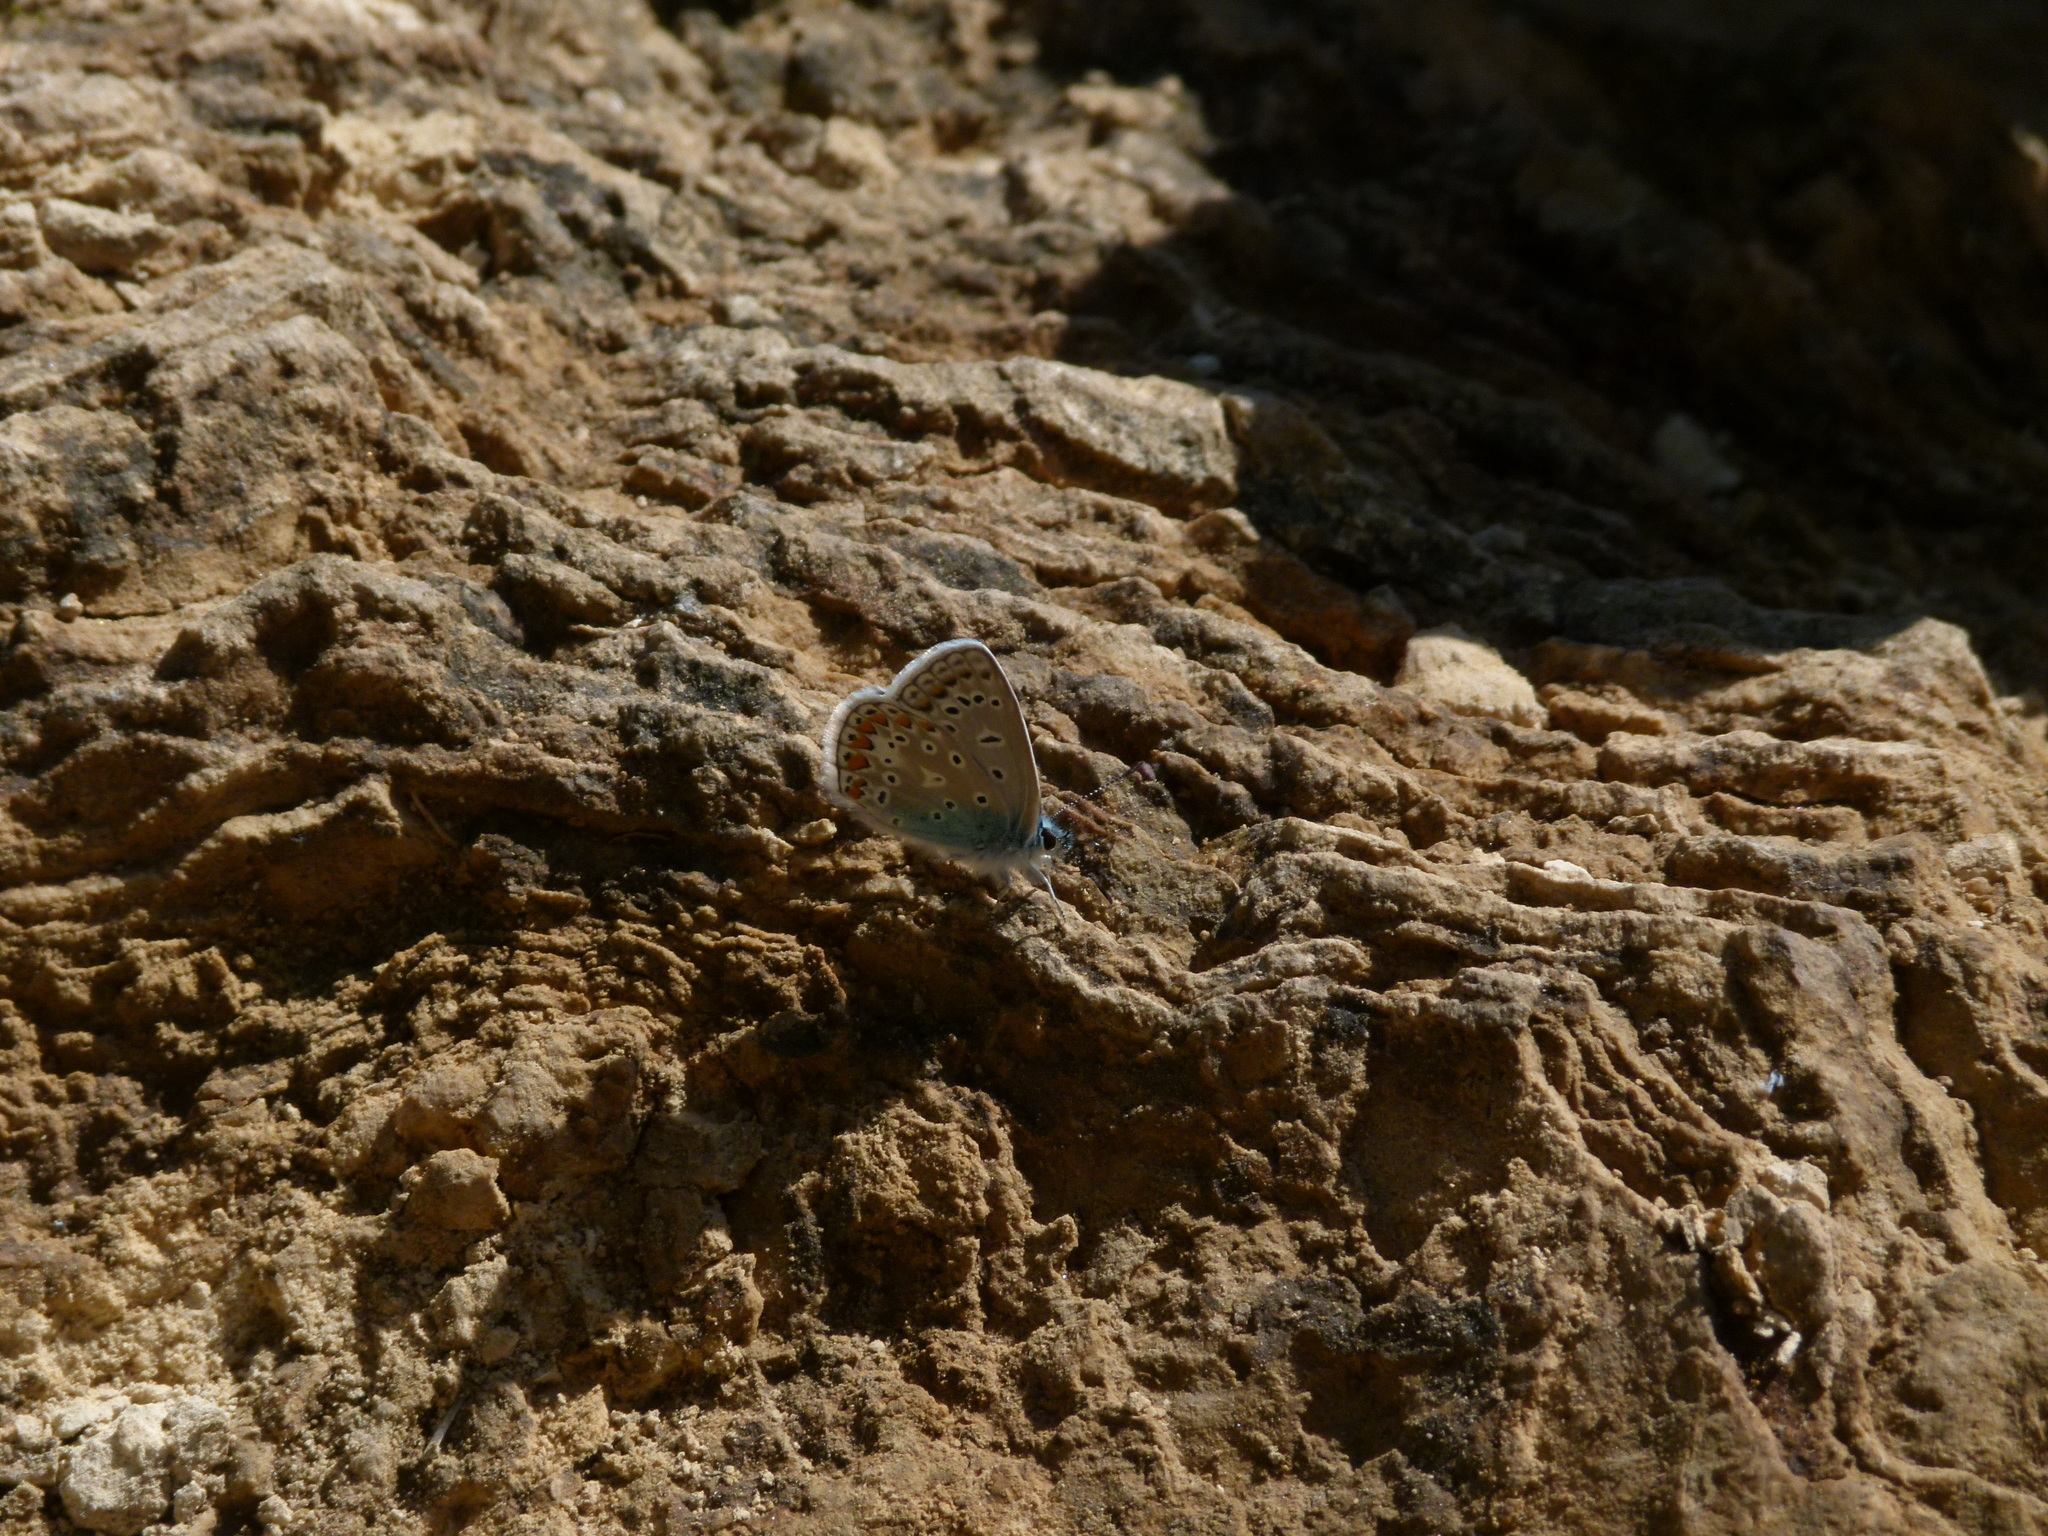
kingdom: Animalia
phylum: Arthropoda
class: Insecta
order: Lepidoptera
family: Lycaenidae
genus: Polyommatus
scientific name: Polyommatus icarus
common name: Common blue
